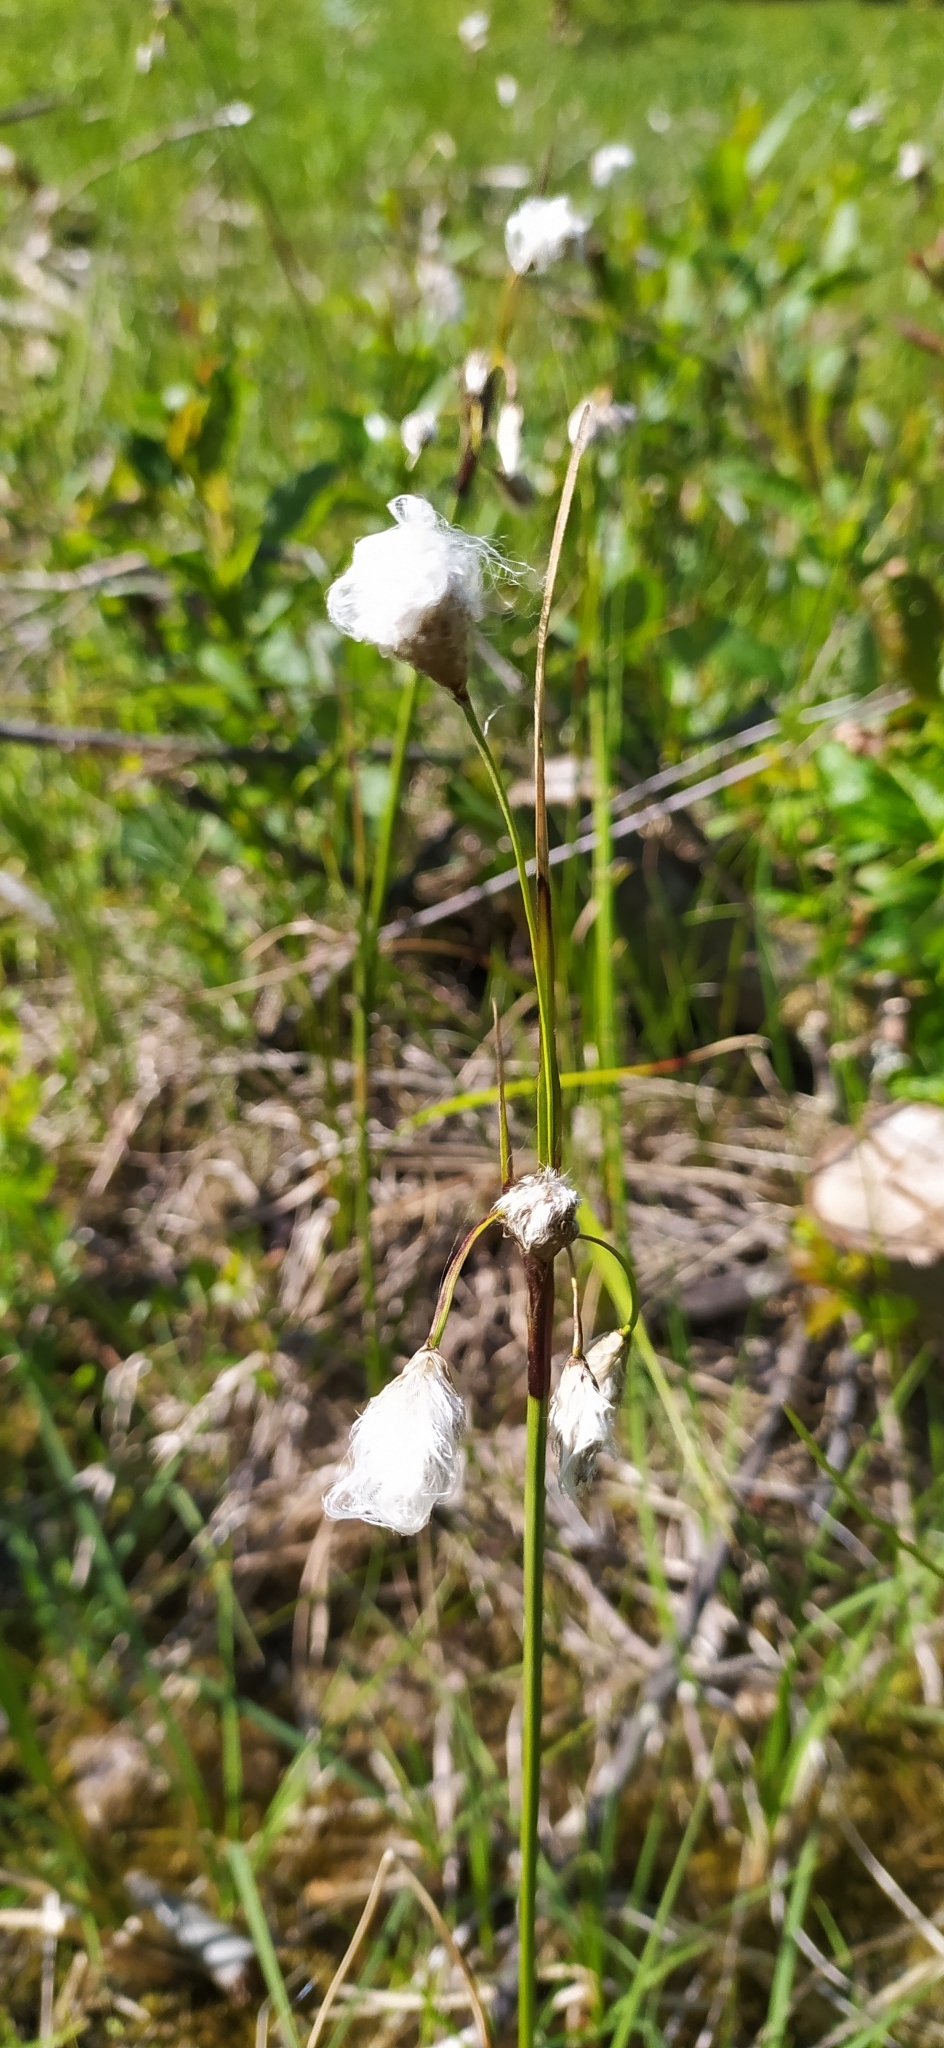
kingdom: Plantae
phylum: Tracheophyta
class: Liliopsida
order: Poales
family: Cyperaceae
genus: Eriophorum
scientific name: Eriophorum angustifolium
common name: Common cottongrass
